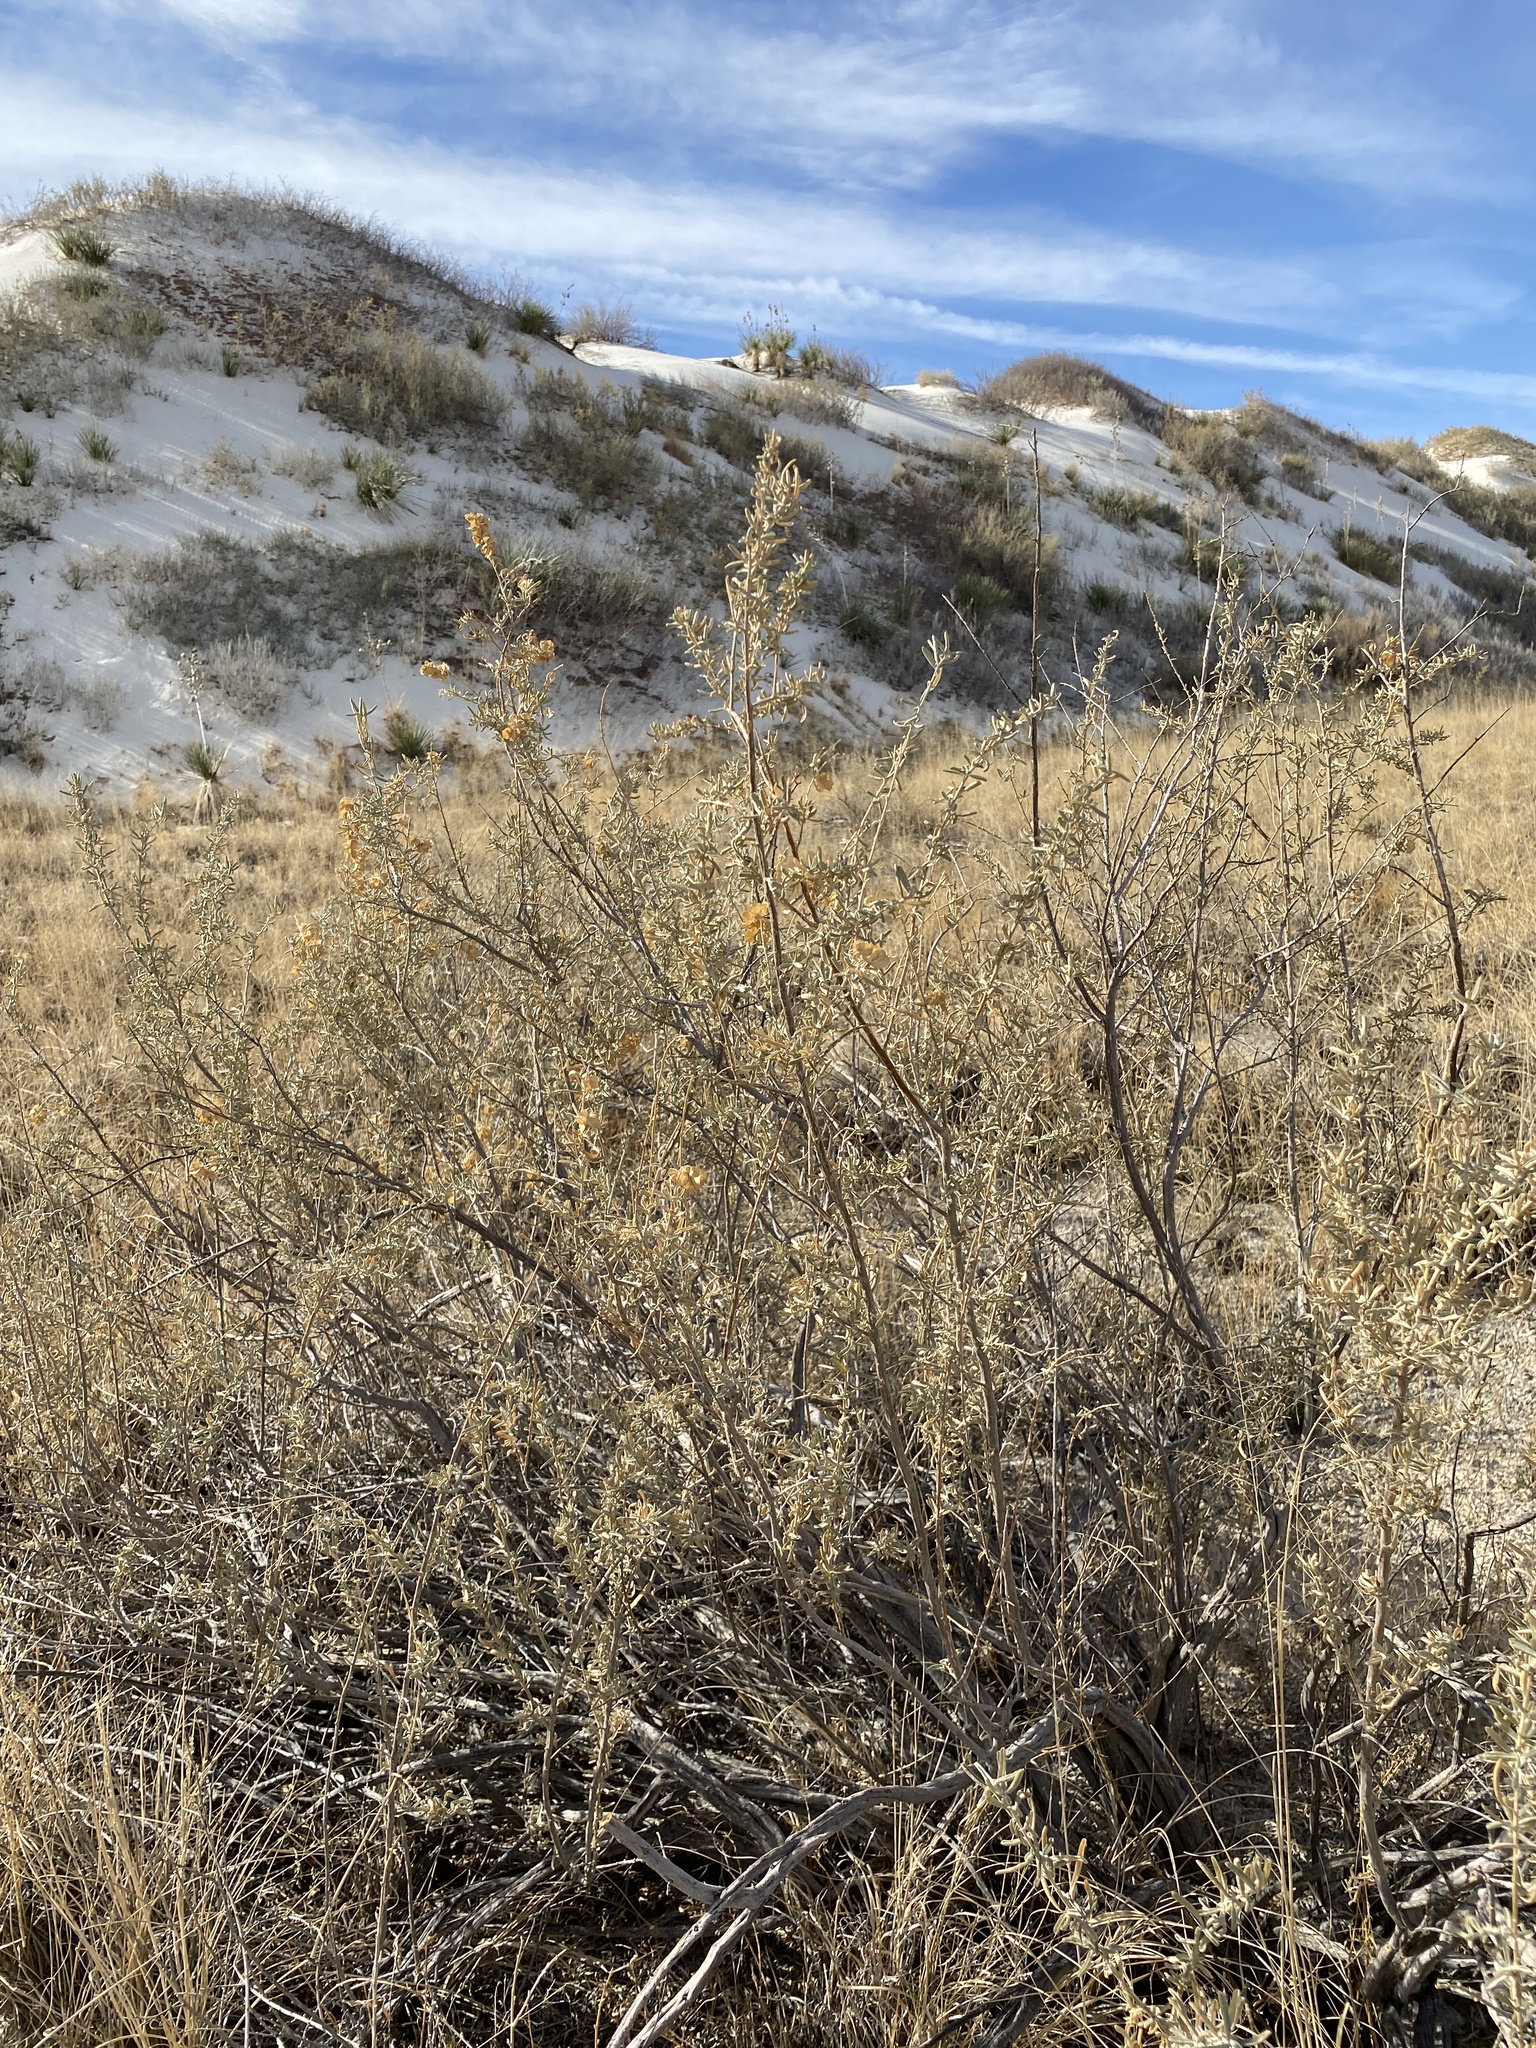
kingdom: Plantae
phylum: Tracheophyta
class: Magnoliopsida
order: Caryophyllales
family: Amaranthaceae
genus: Atriplex
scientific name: Atriplex canescens
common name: Four-wing saltbush
